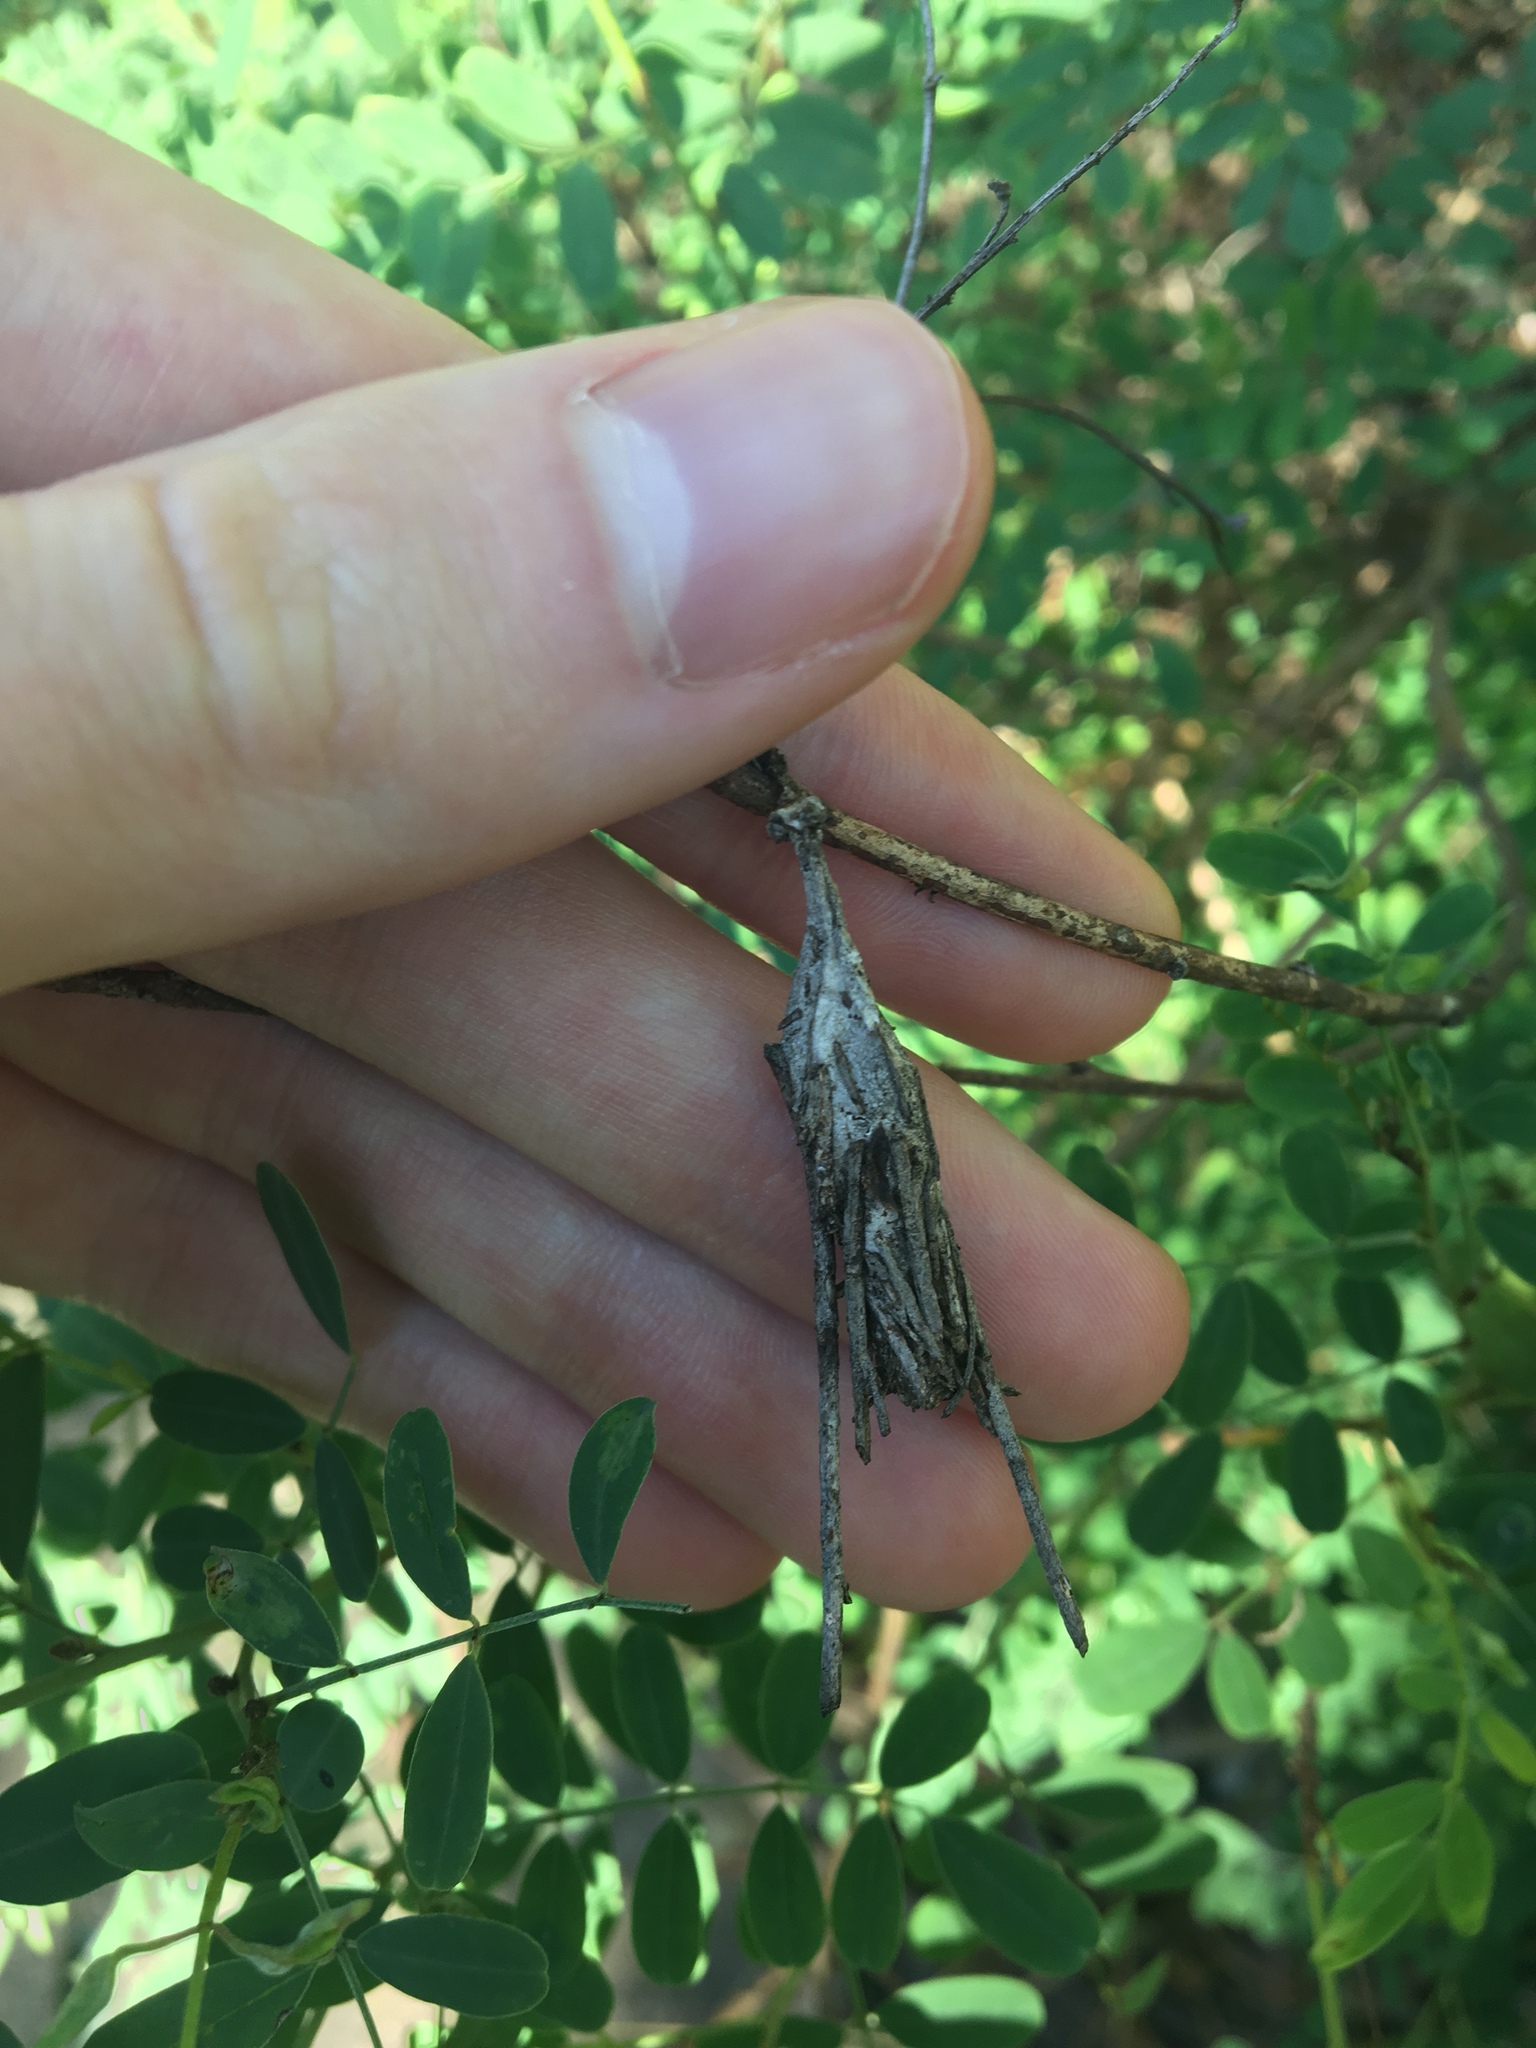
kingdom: Animalia
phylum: Arthropoda
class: Insecta
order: Lepidoptera
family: Psychidae
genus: Metura
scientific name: Metura elongatus
